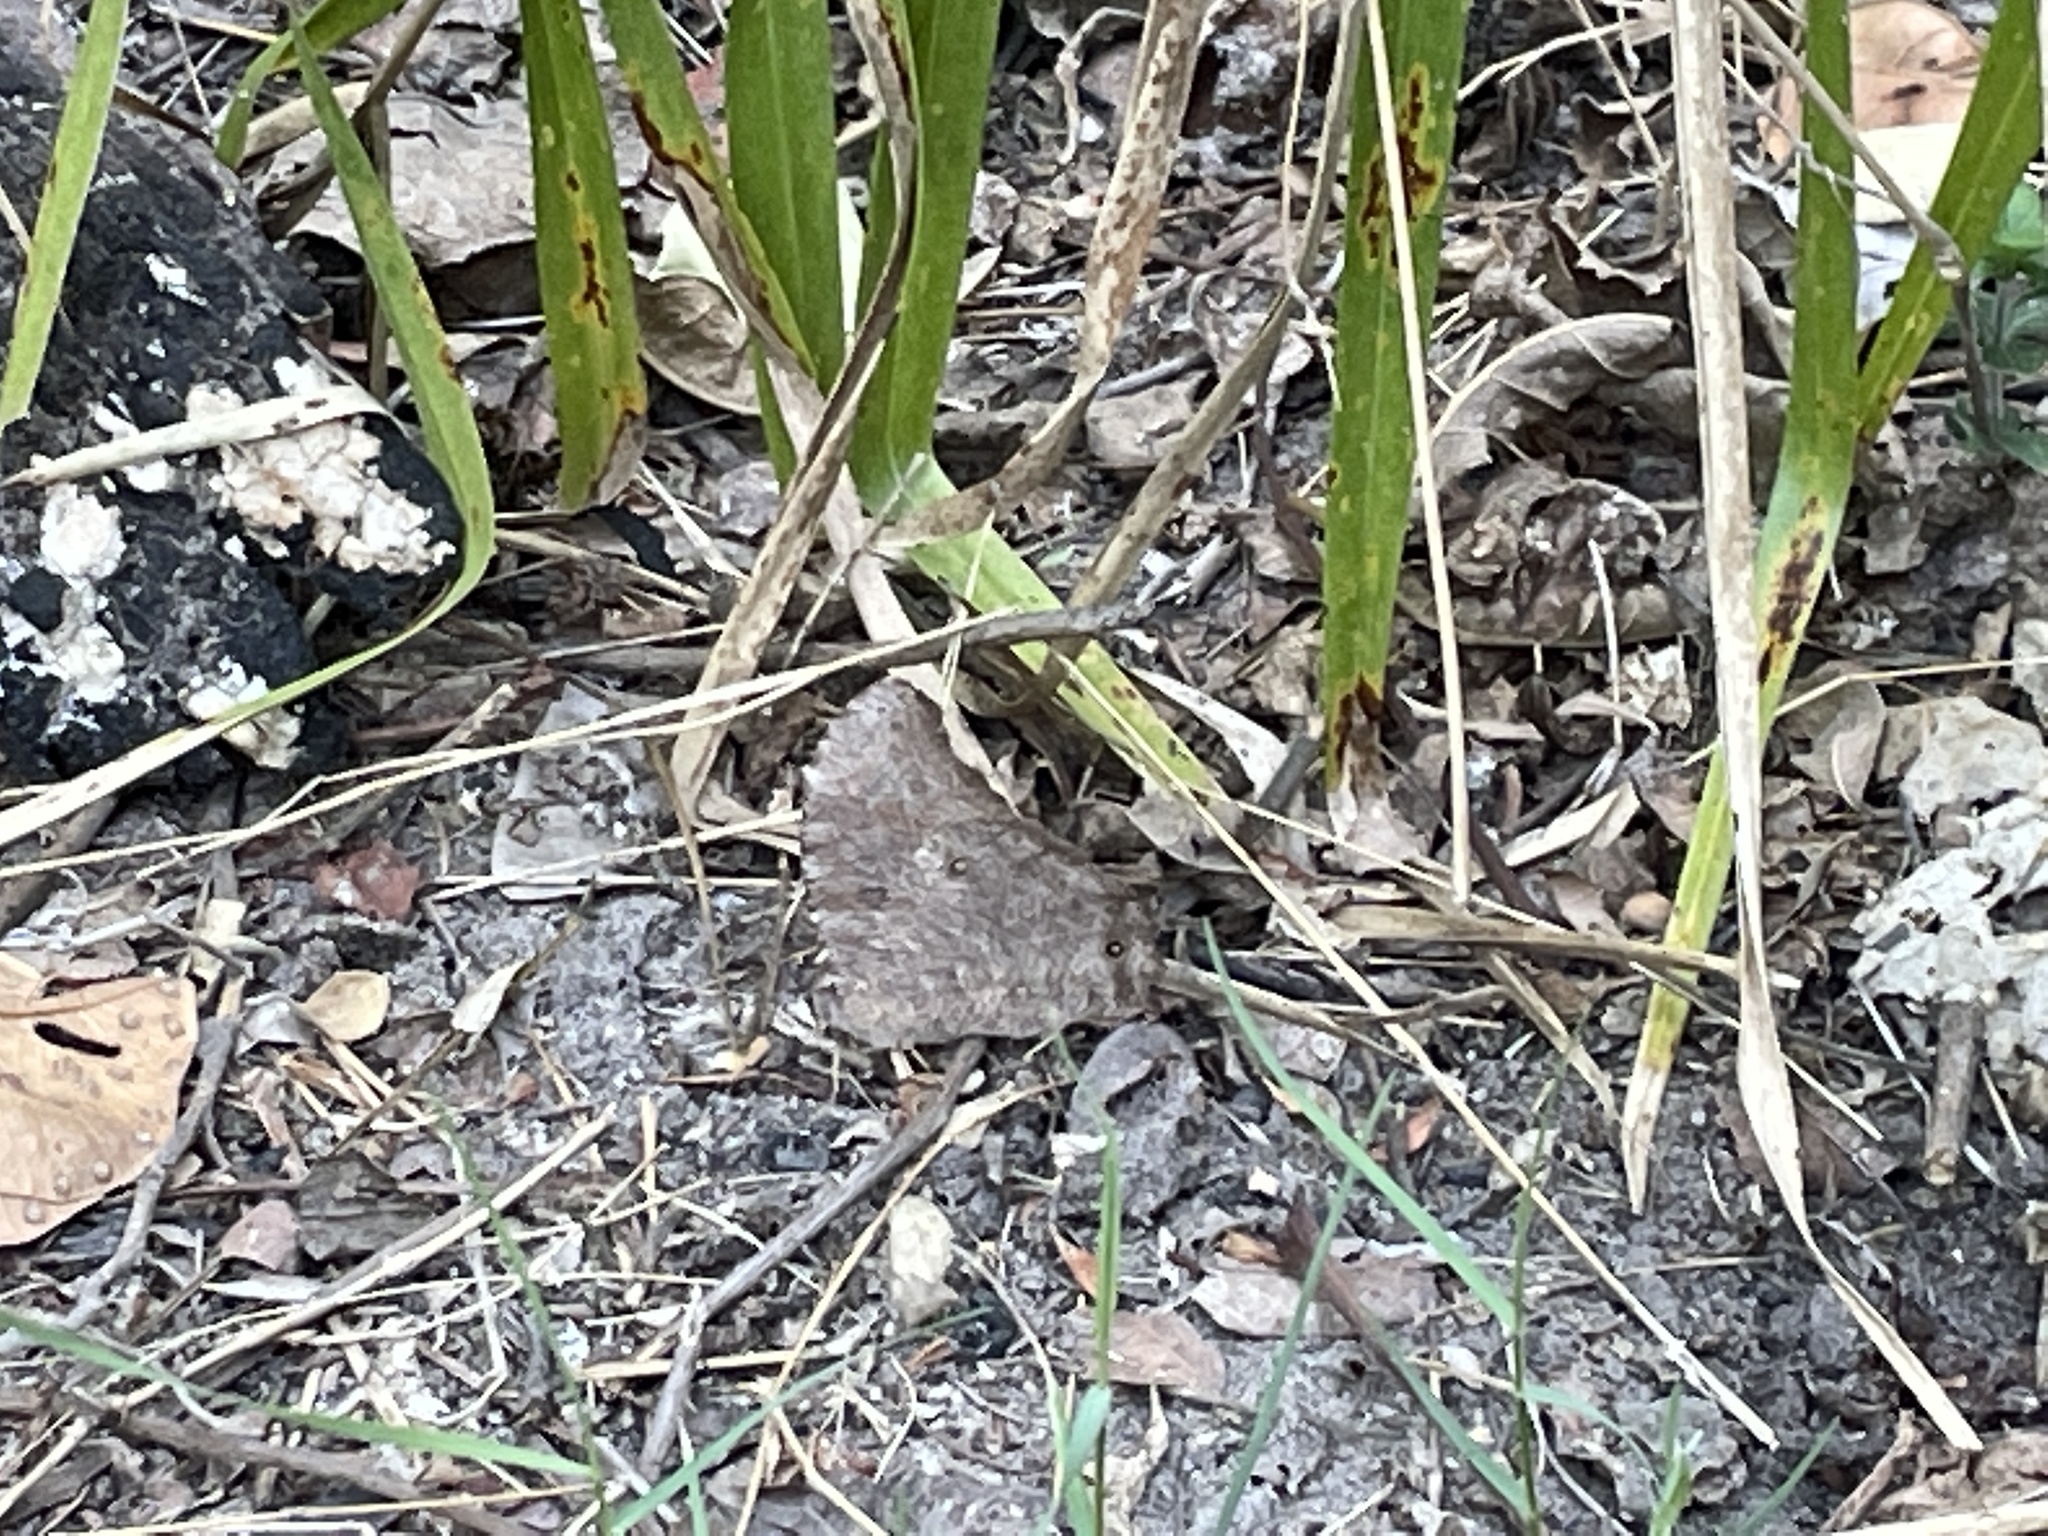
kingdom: Animalia
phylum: Arthropoda
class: Insecta
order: Lepidoptera
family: Nymphalidae
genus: Melanitis
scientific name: Melanitis leda
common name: Twilight brown
